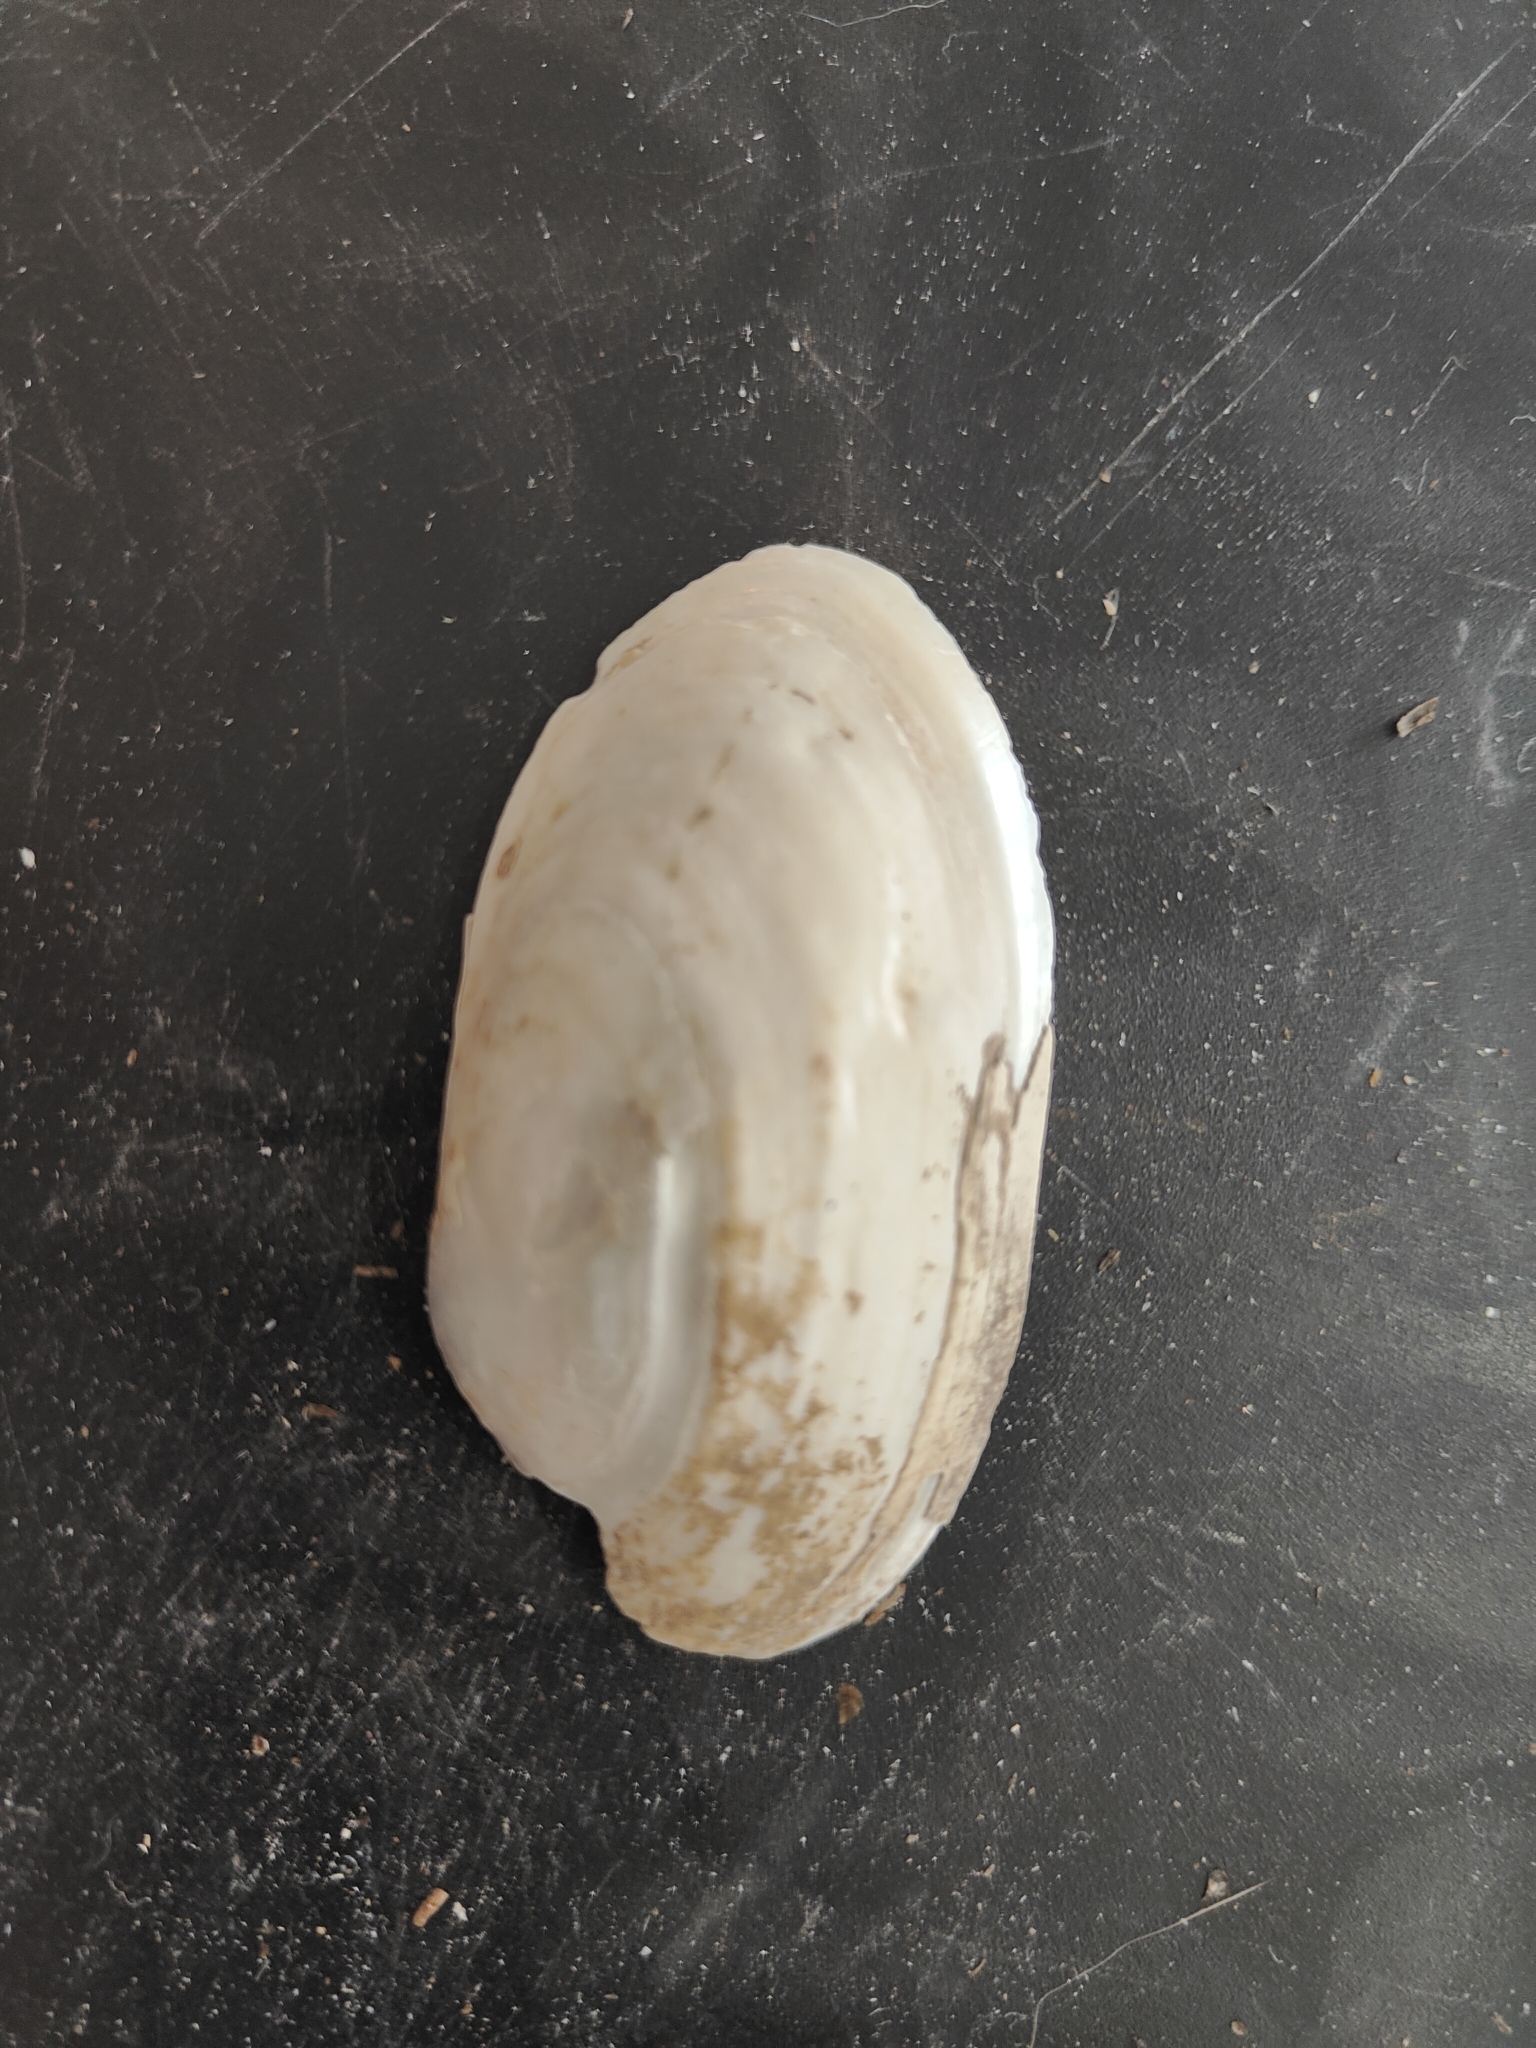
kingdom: Animalia
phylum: Mollusca
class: Bivalvia
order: Unionida
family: Unionidae
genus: Lampsilis
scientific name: Lampsilis siliquoidea
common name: Fatmucket
